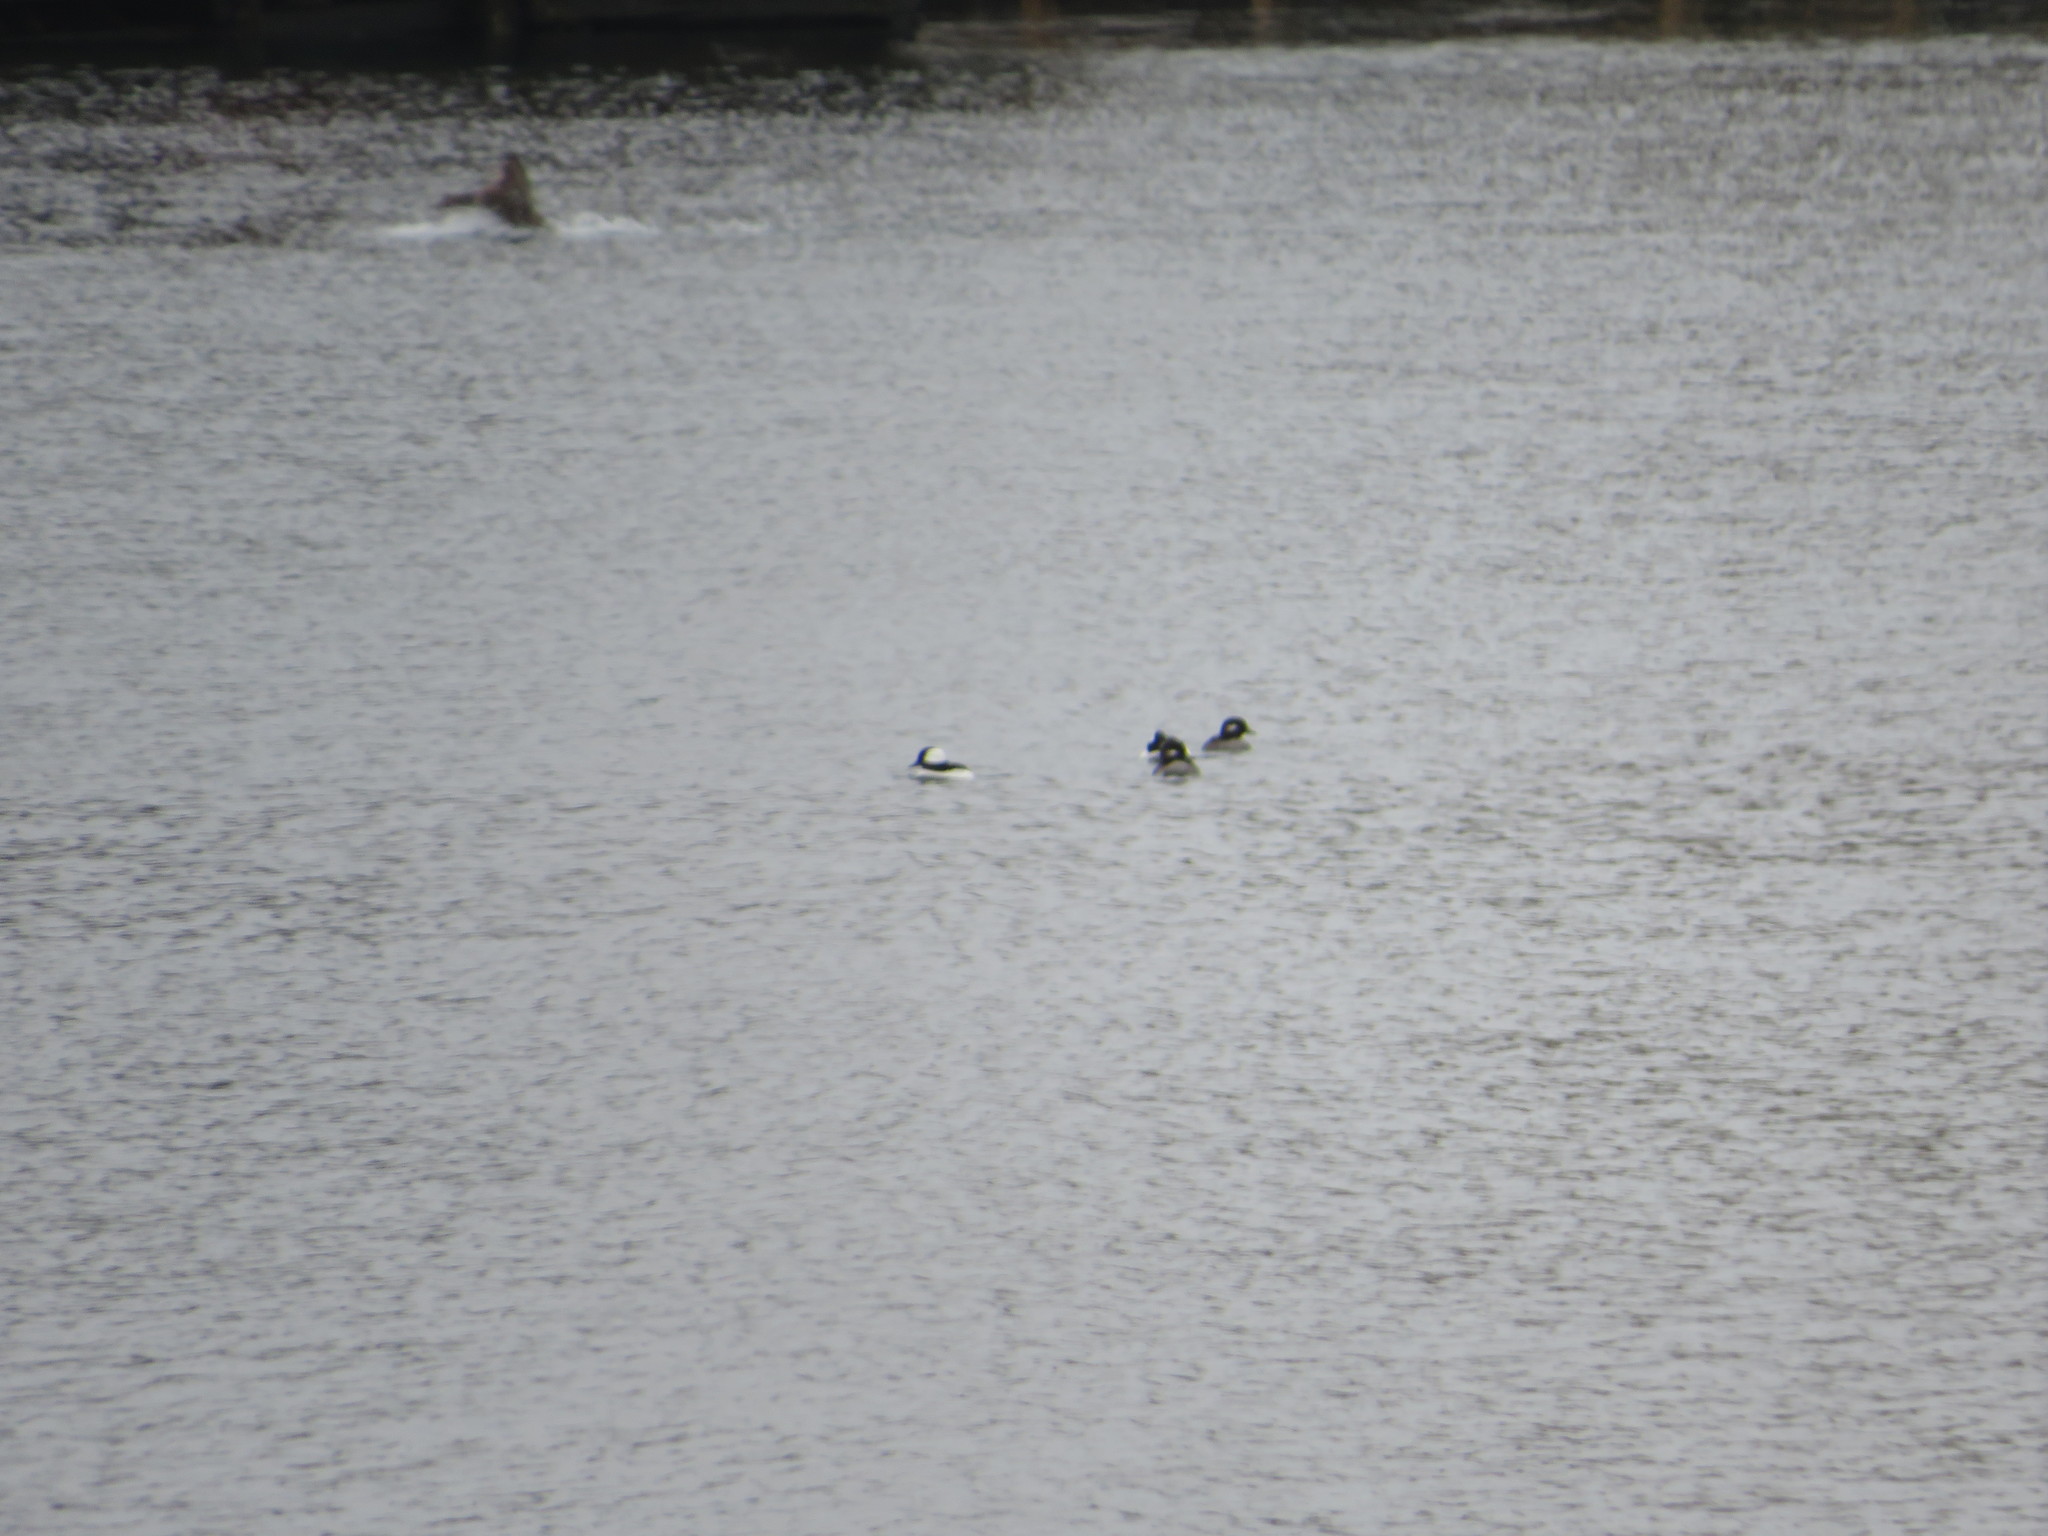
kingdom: Animalia
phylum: Chordata
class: Aves
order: Anseriformes
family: Anatidae
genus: Bucephala
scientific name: Bucephala albeola
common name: Bufflehead
